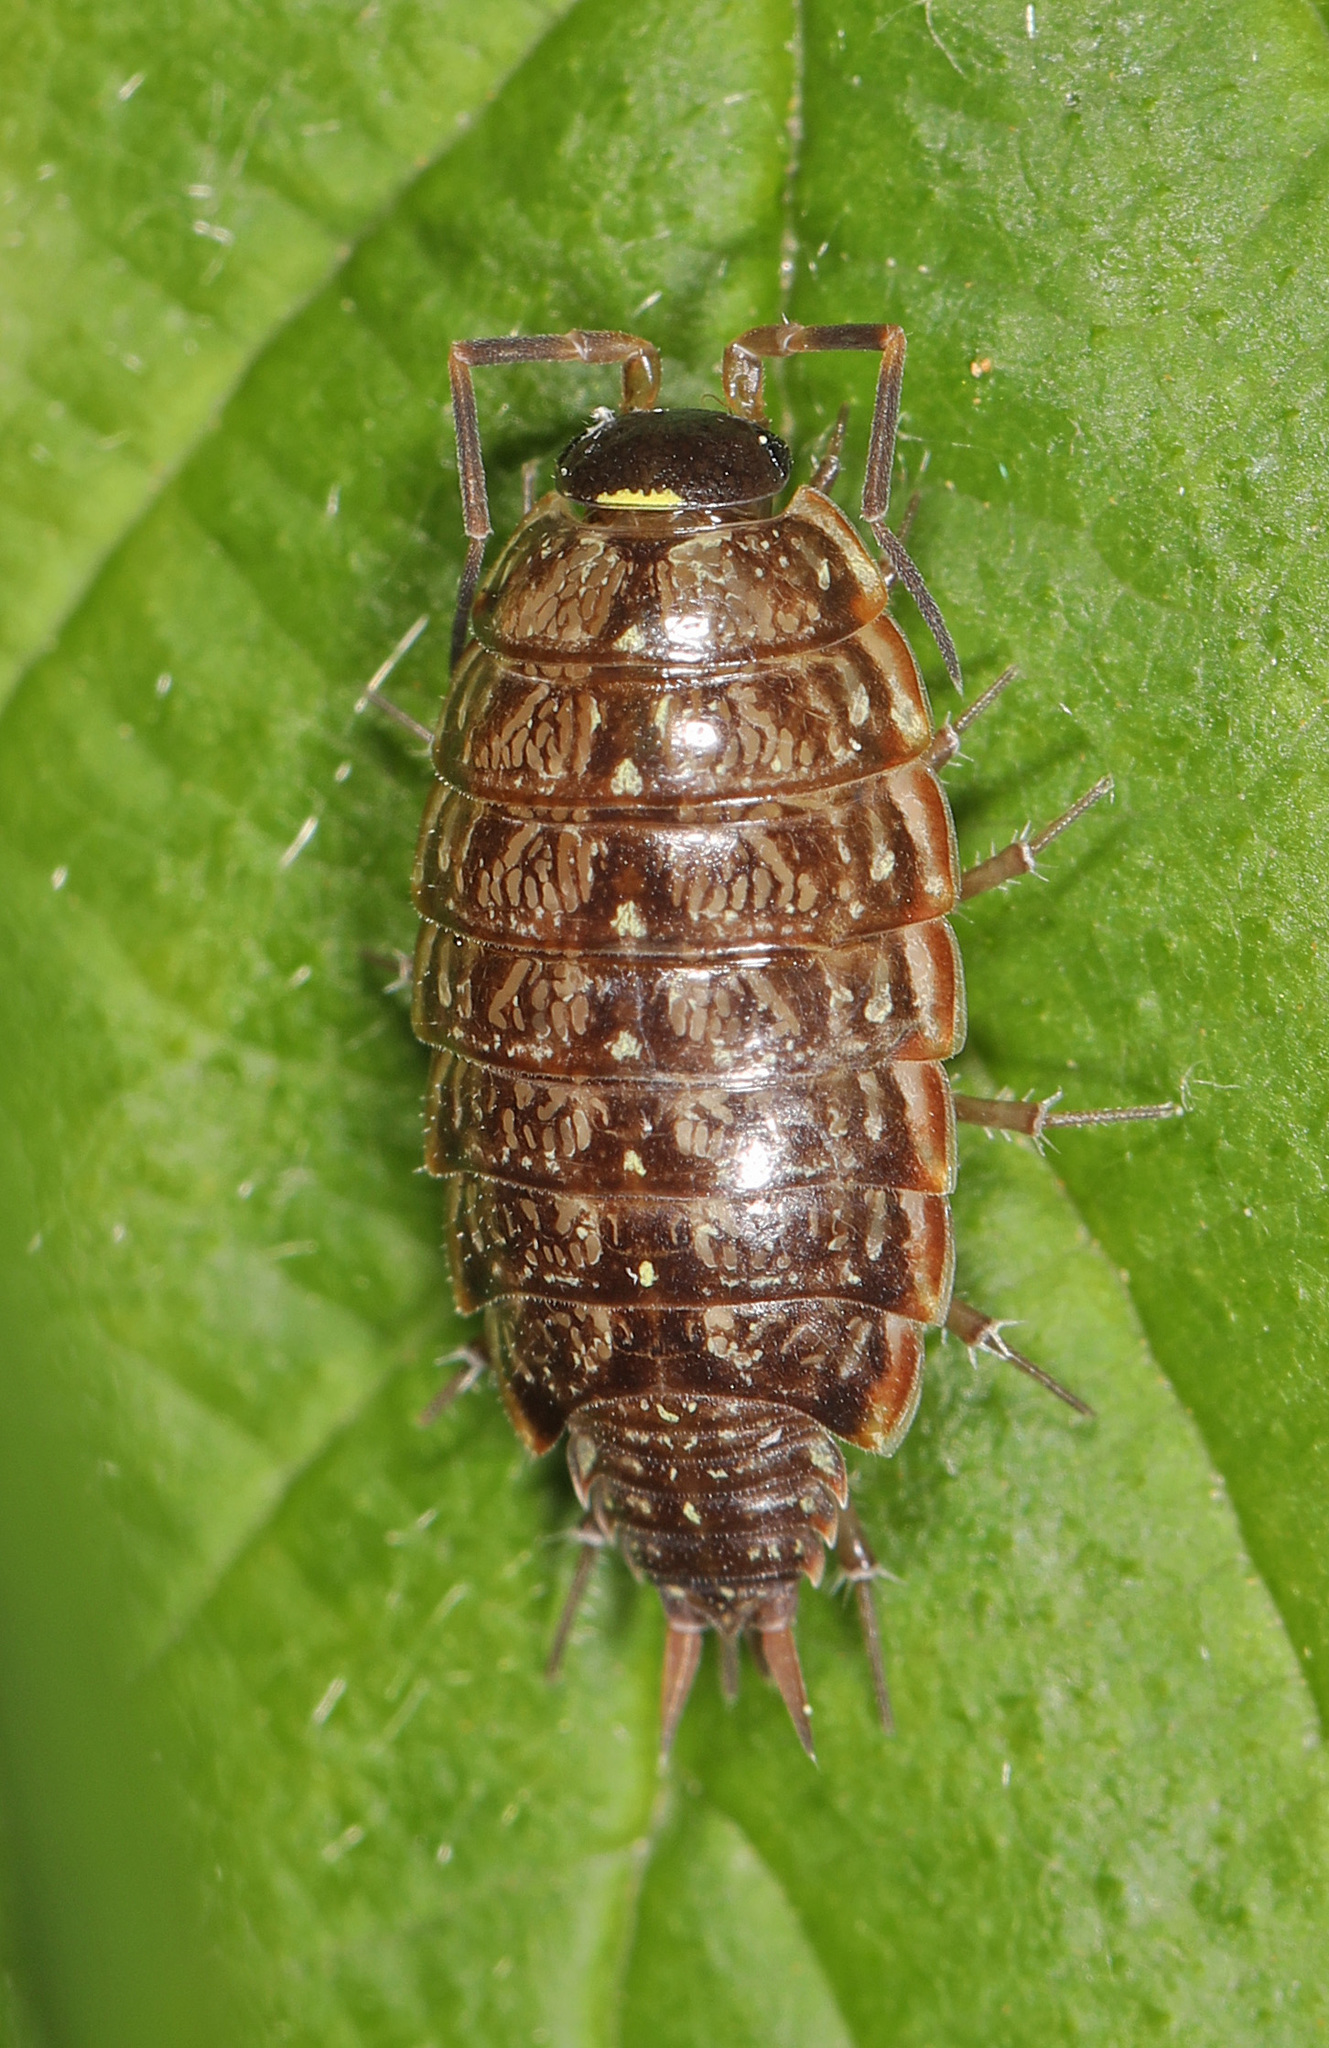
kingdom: Animalia
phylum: Arthropoda
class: Malacostraca
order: Isopoda
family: Philosciidae
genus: Philoscia
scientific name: Philoscia muscorum
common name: Common striped woodlouse
